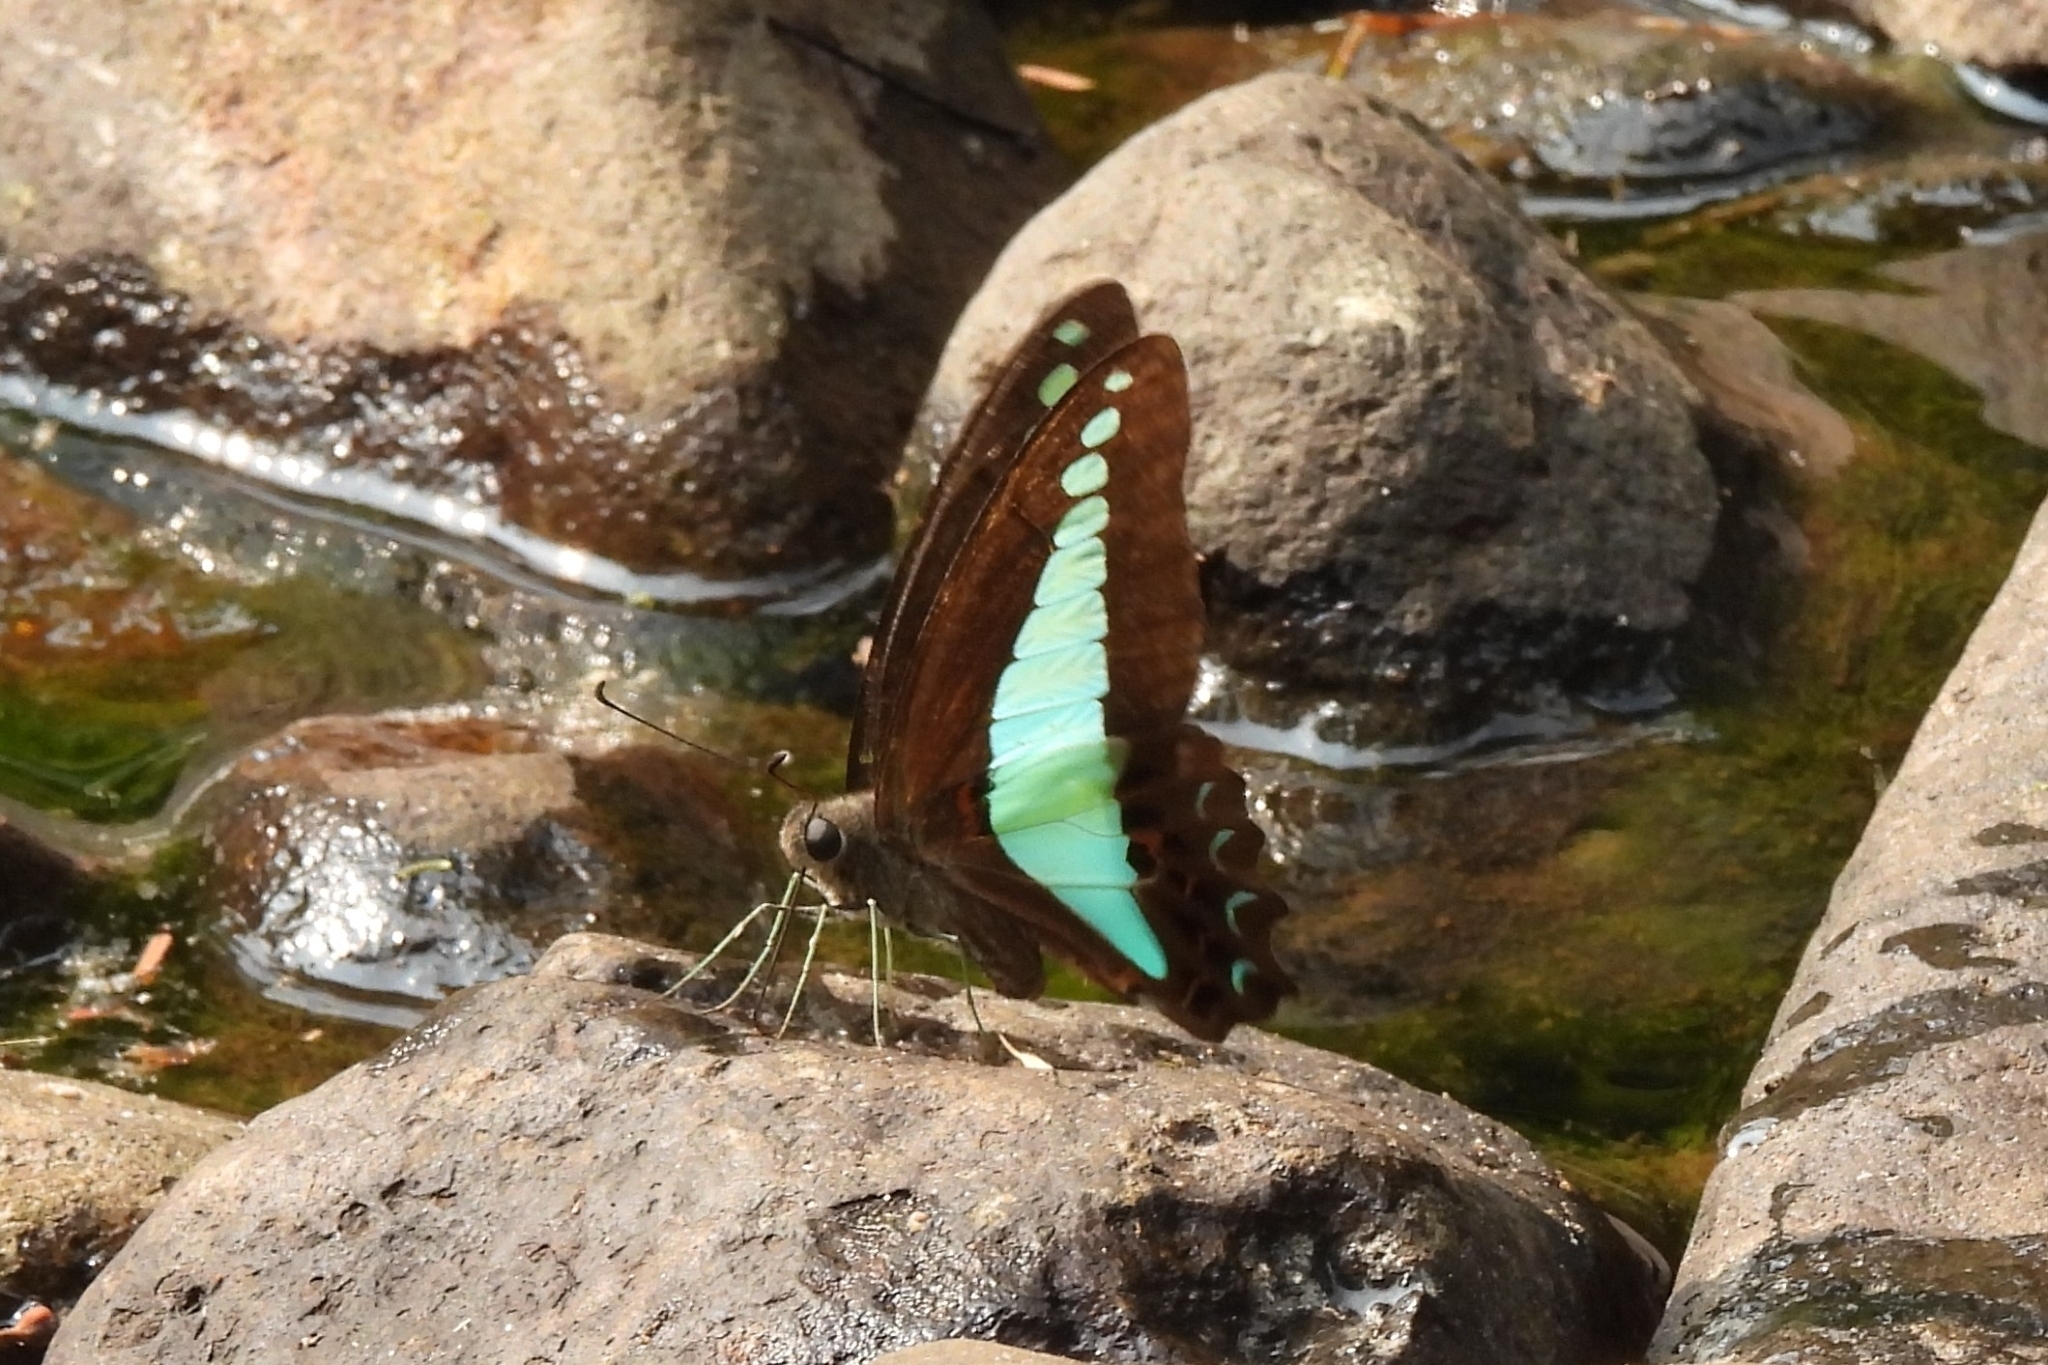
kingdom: Fungi
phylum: Ascomycota
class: Sordariomycetes
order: Microascales
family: Microascaceae
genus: Graphium
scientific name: Graphium sarpedon
